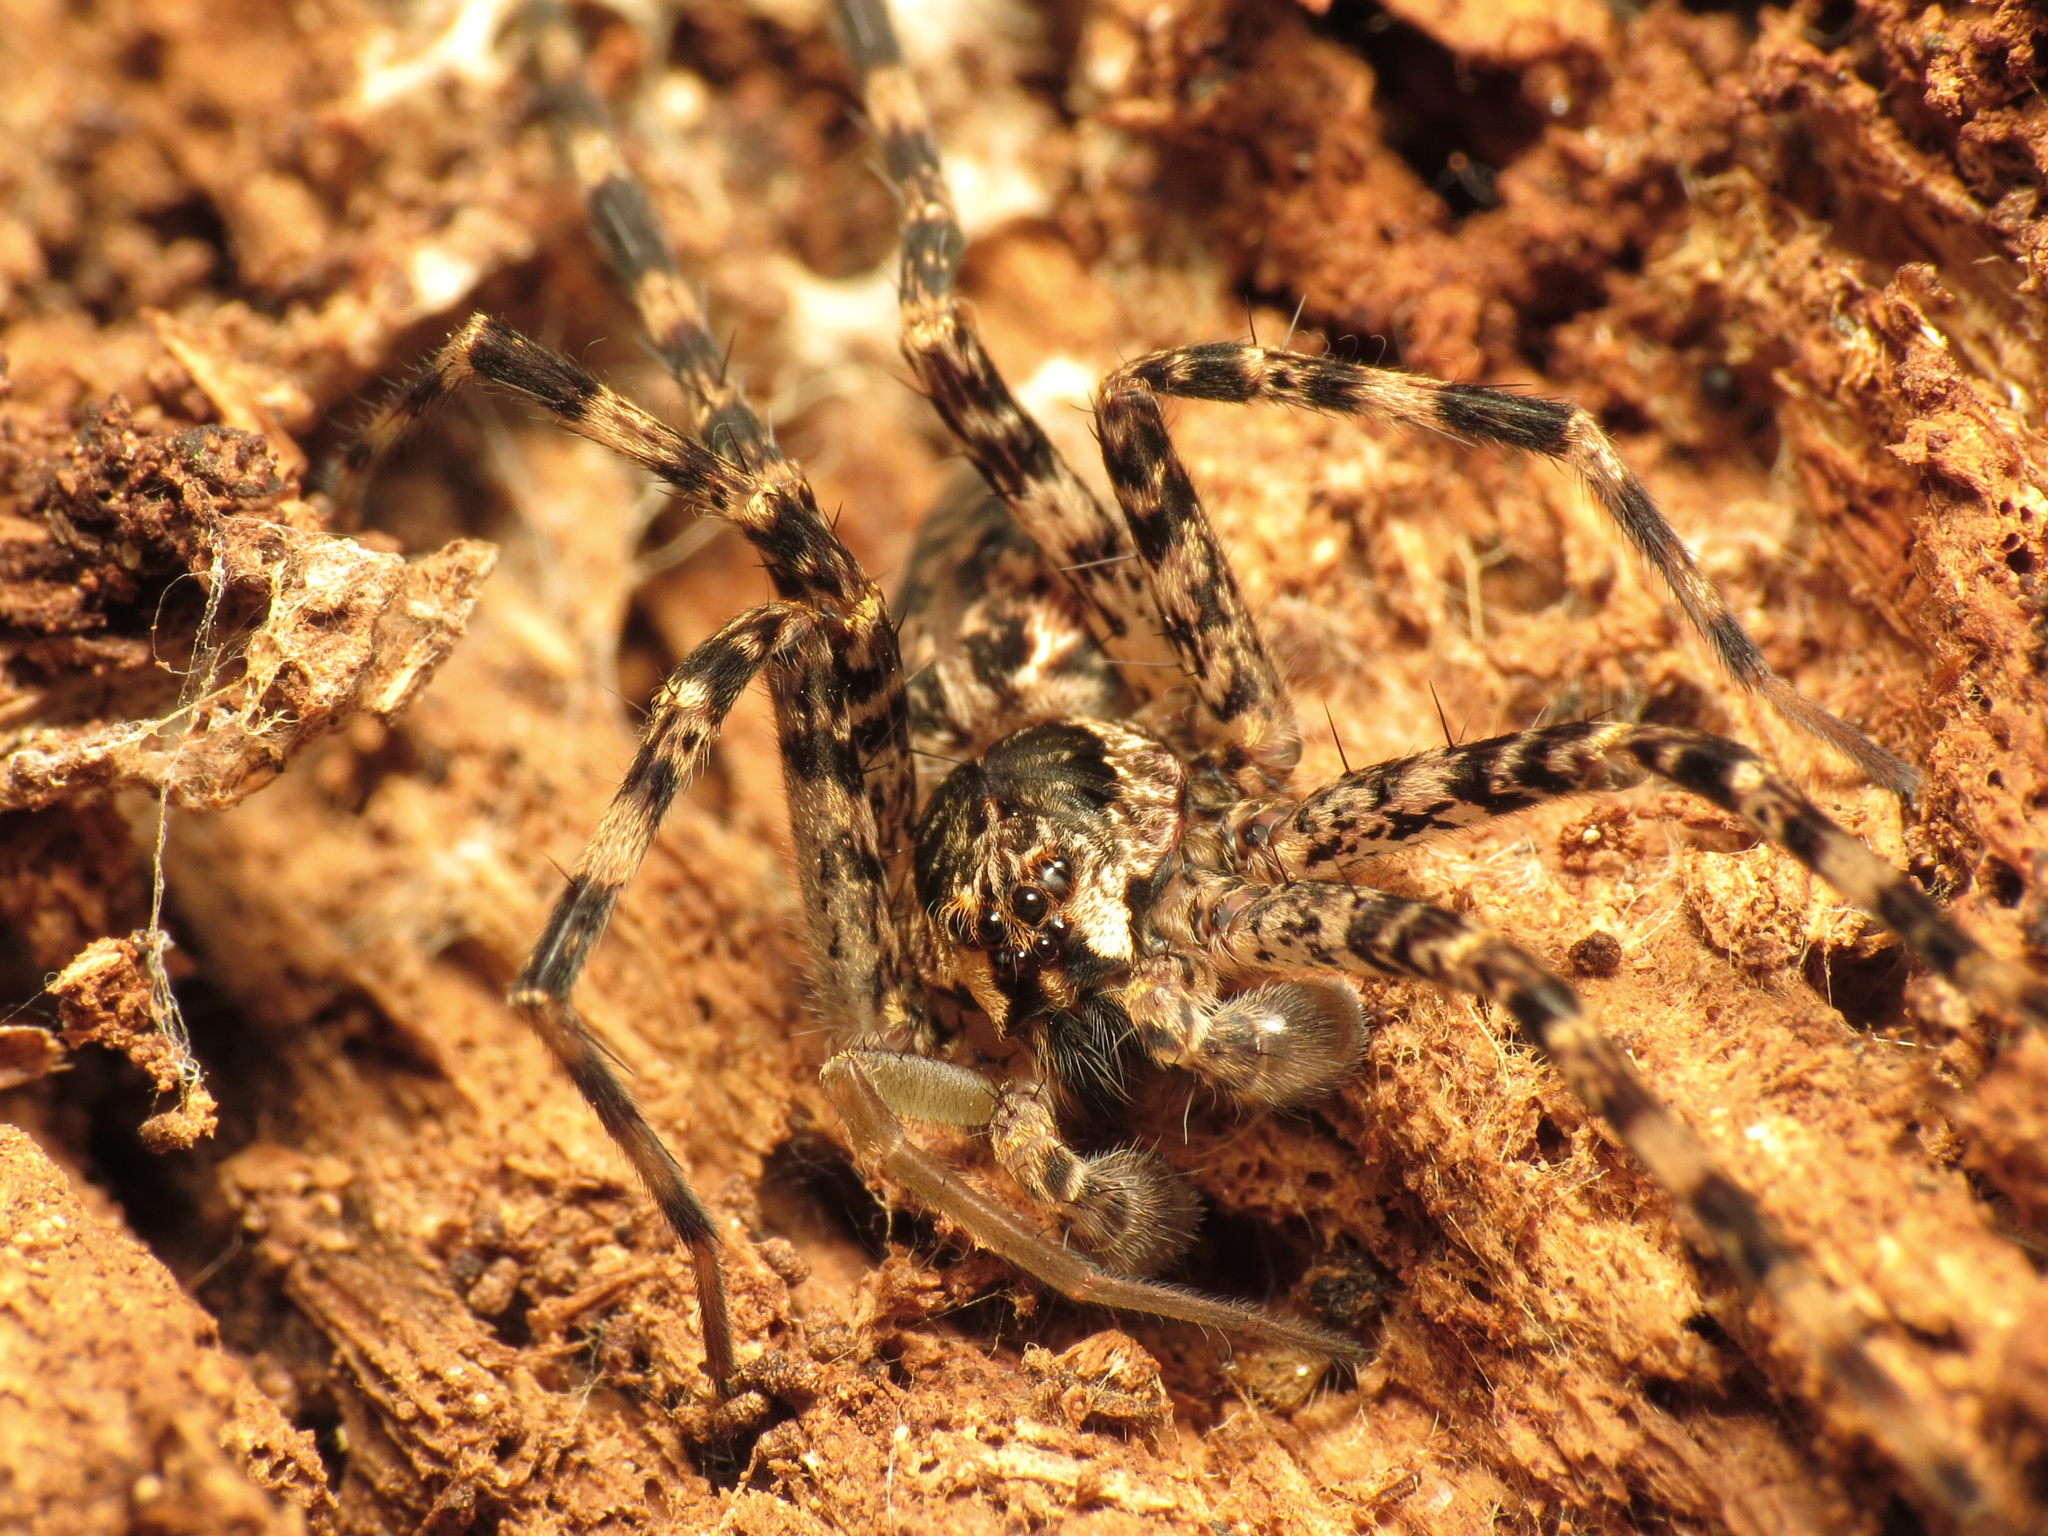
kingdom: Animalia
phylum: Arthropoda
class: Arachnida
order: Araneae
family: Pisauridae
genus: Dolomedes
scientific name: Dolomedes tenebrosus
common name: Dark fishing spider
